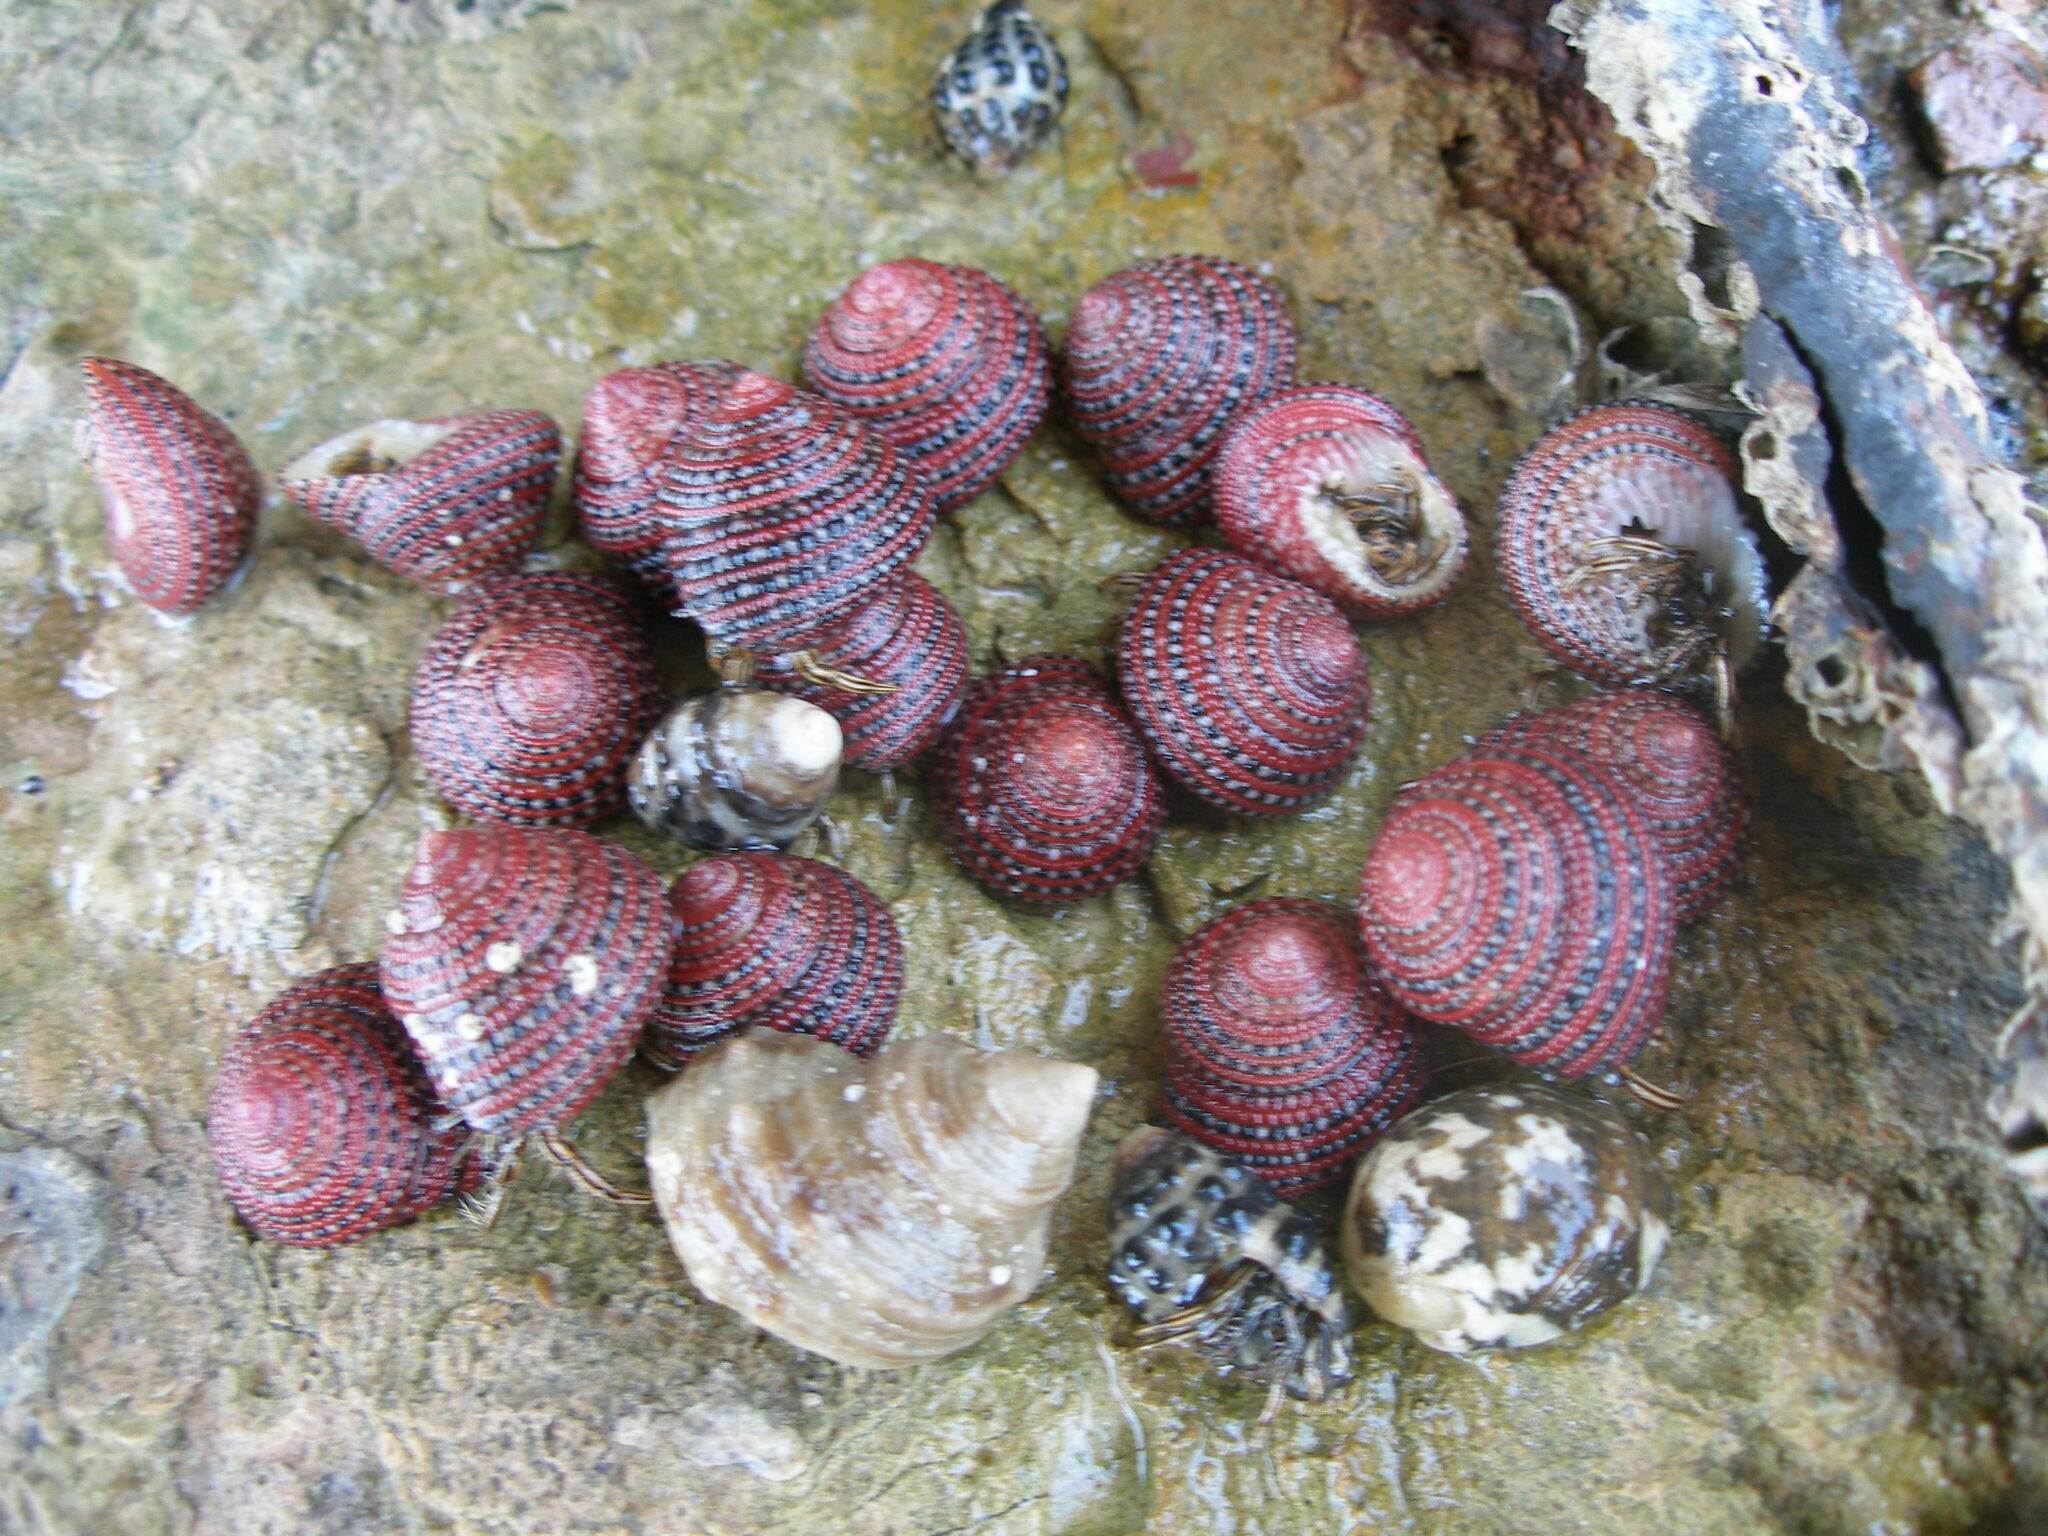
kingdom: Animalia
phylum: Mollusca
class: Gastropoda
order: Trochida
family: Trochidae
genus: Clanculus
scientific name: Clanculus pharaonius
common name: Strawberry top
